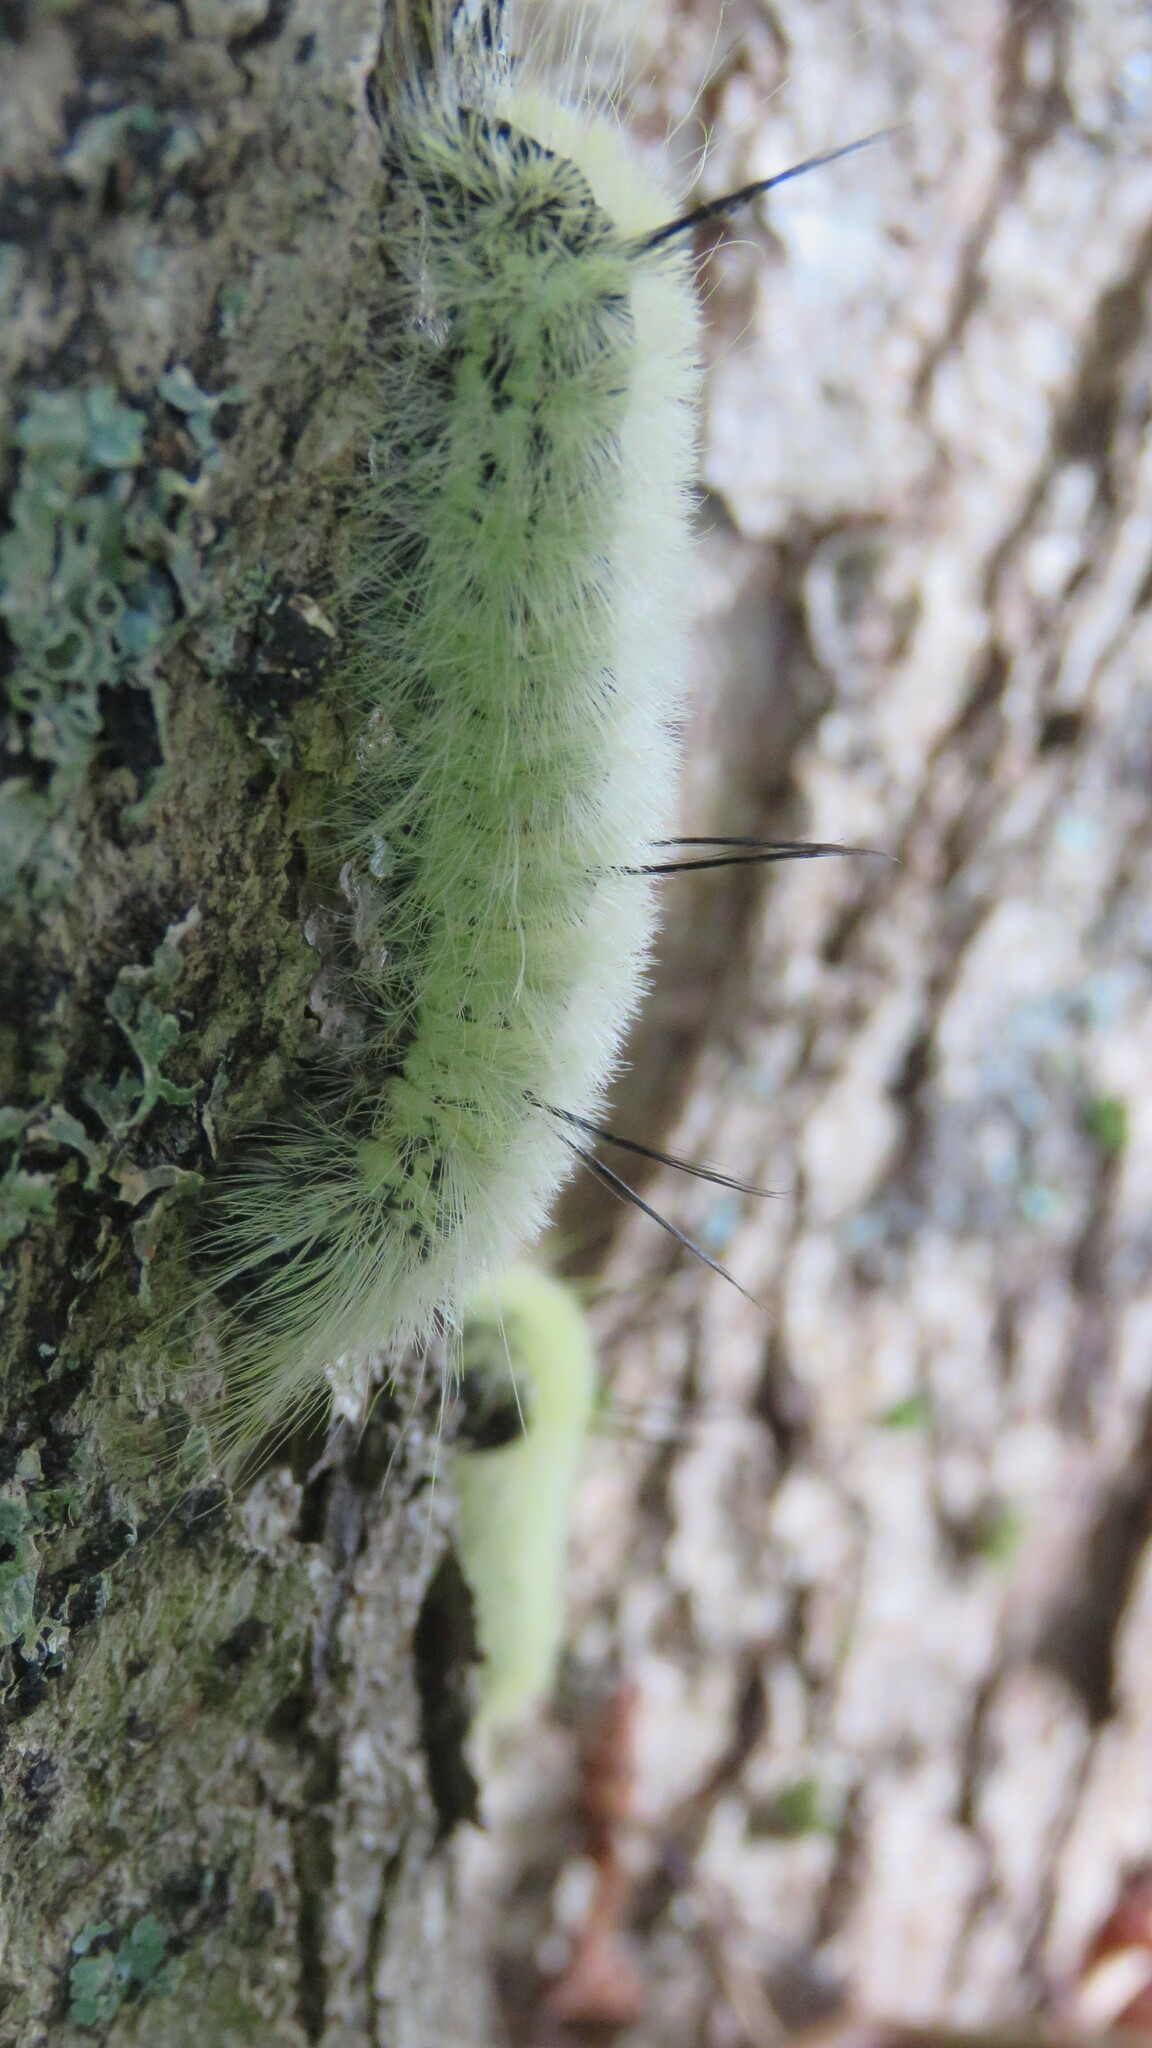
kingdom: Animalia
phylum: Arthropoda
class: Insecta
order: Lepidoptera
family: Noctuidae
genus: Acronicta
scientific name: Acronicta americana
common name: American dagger
